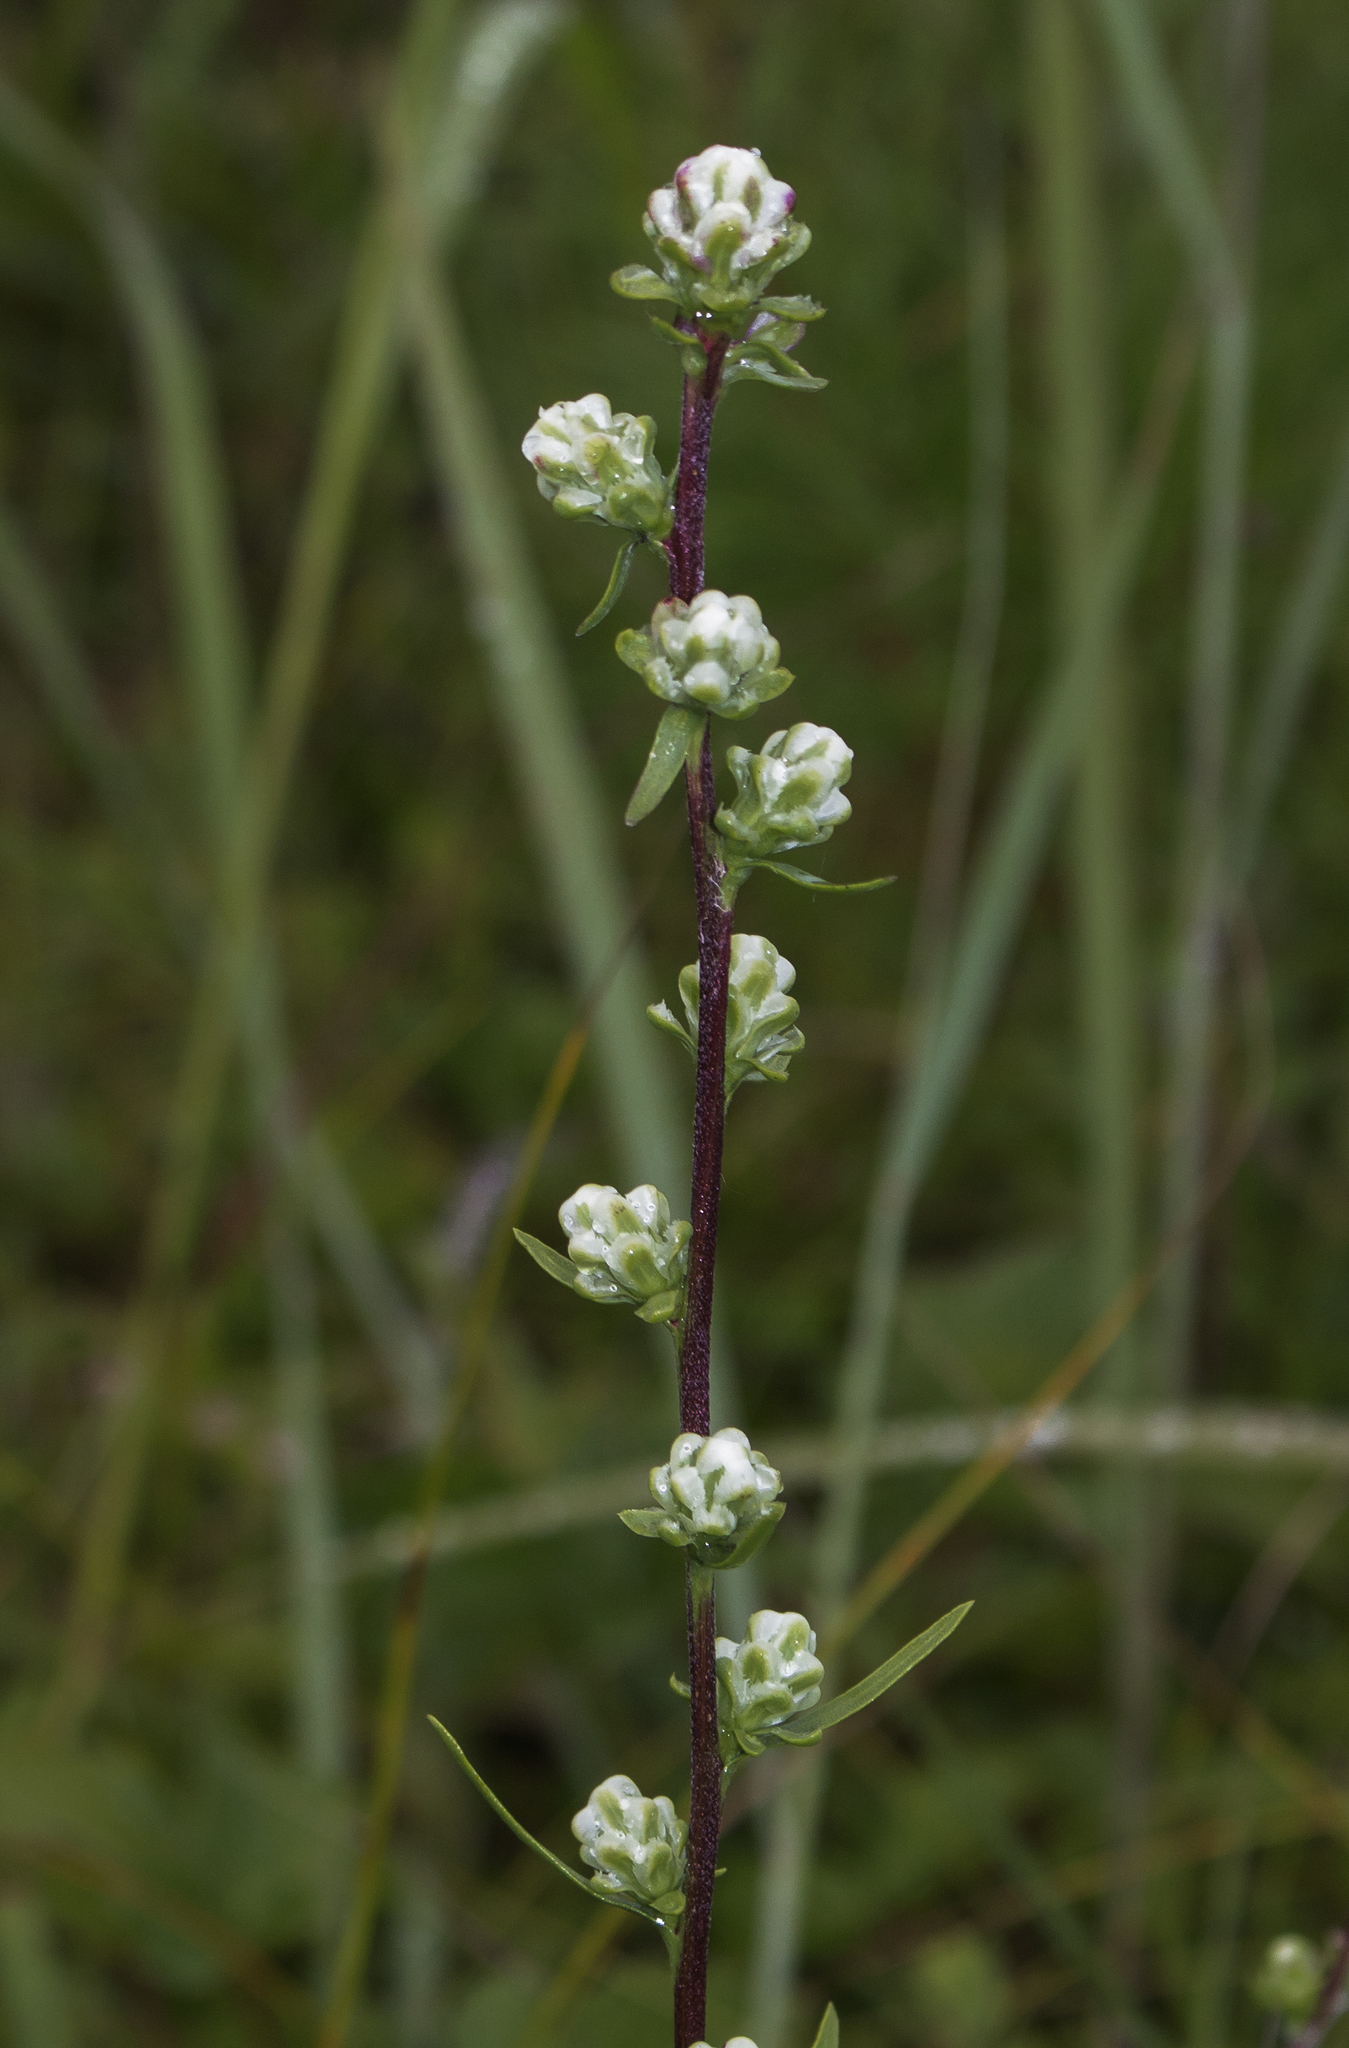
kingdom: Plantae
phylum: Tracheophyta
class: Magnoliopsida
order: Asterales
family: Asteraceae
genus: Liatris
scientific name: Liatris aspera
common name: Lacerate blazing-star
